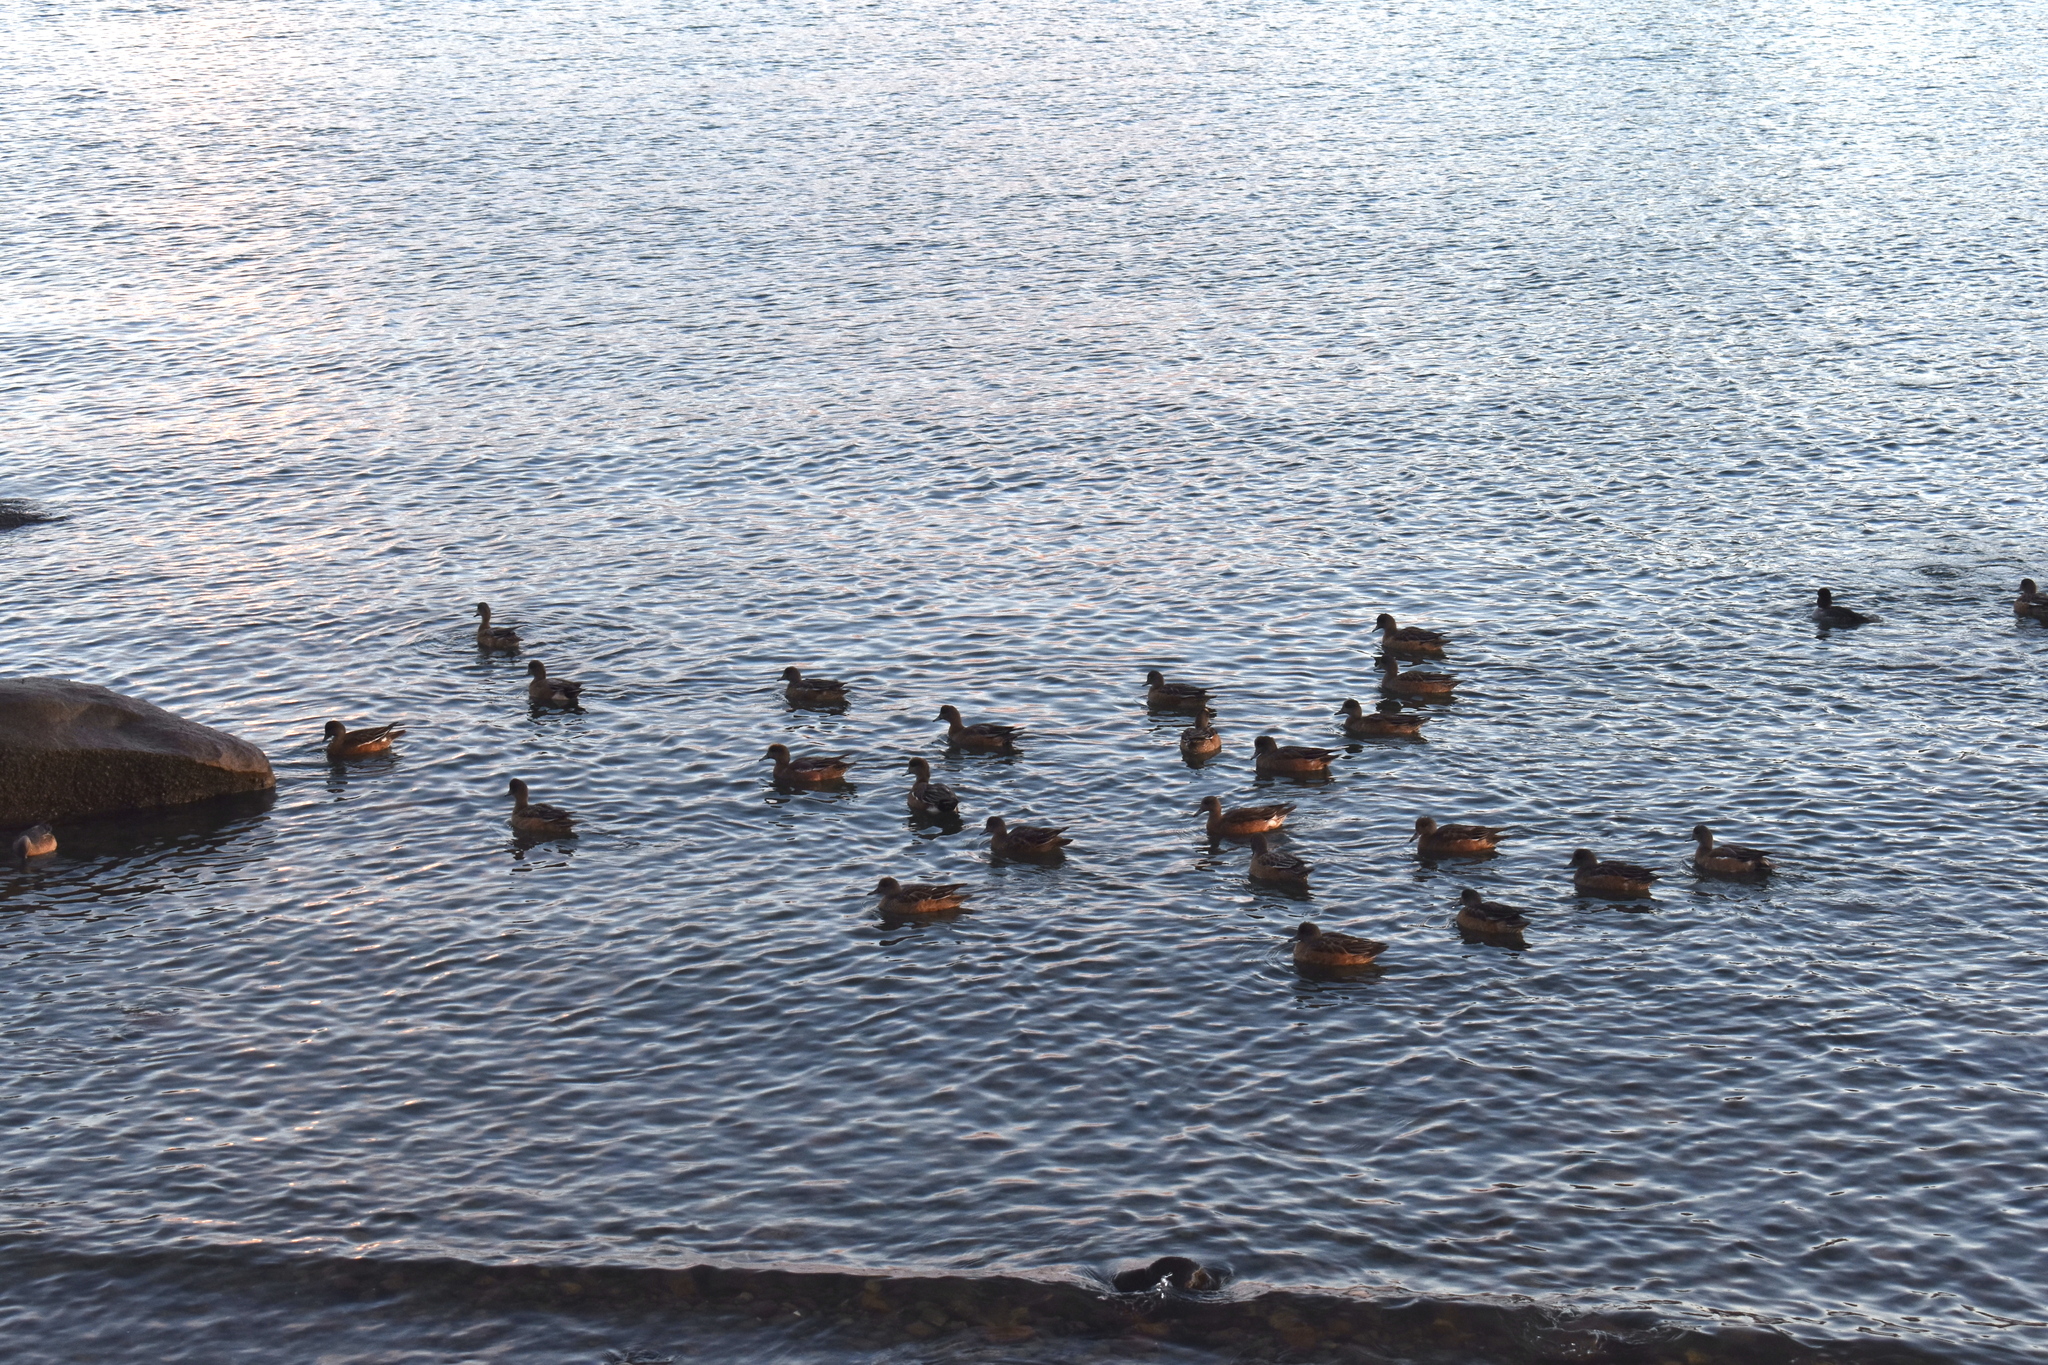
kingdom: Animalia
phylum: Chordata
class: Aves
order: Anseriformes
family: Anatidae
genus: Mareca
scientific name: Mareca americana
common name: American wigeon
